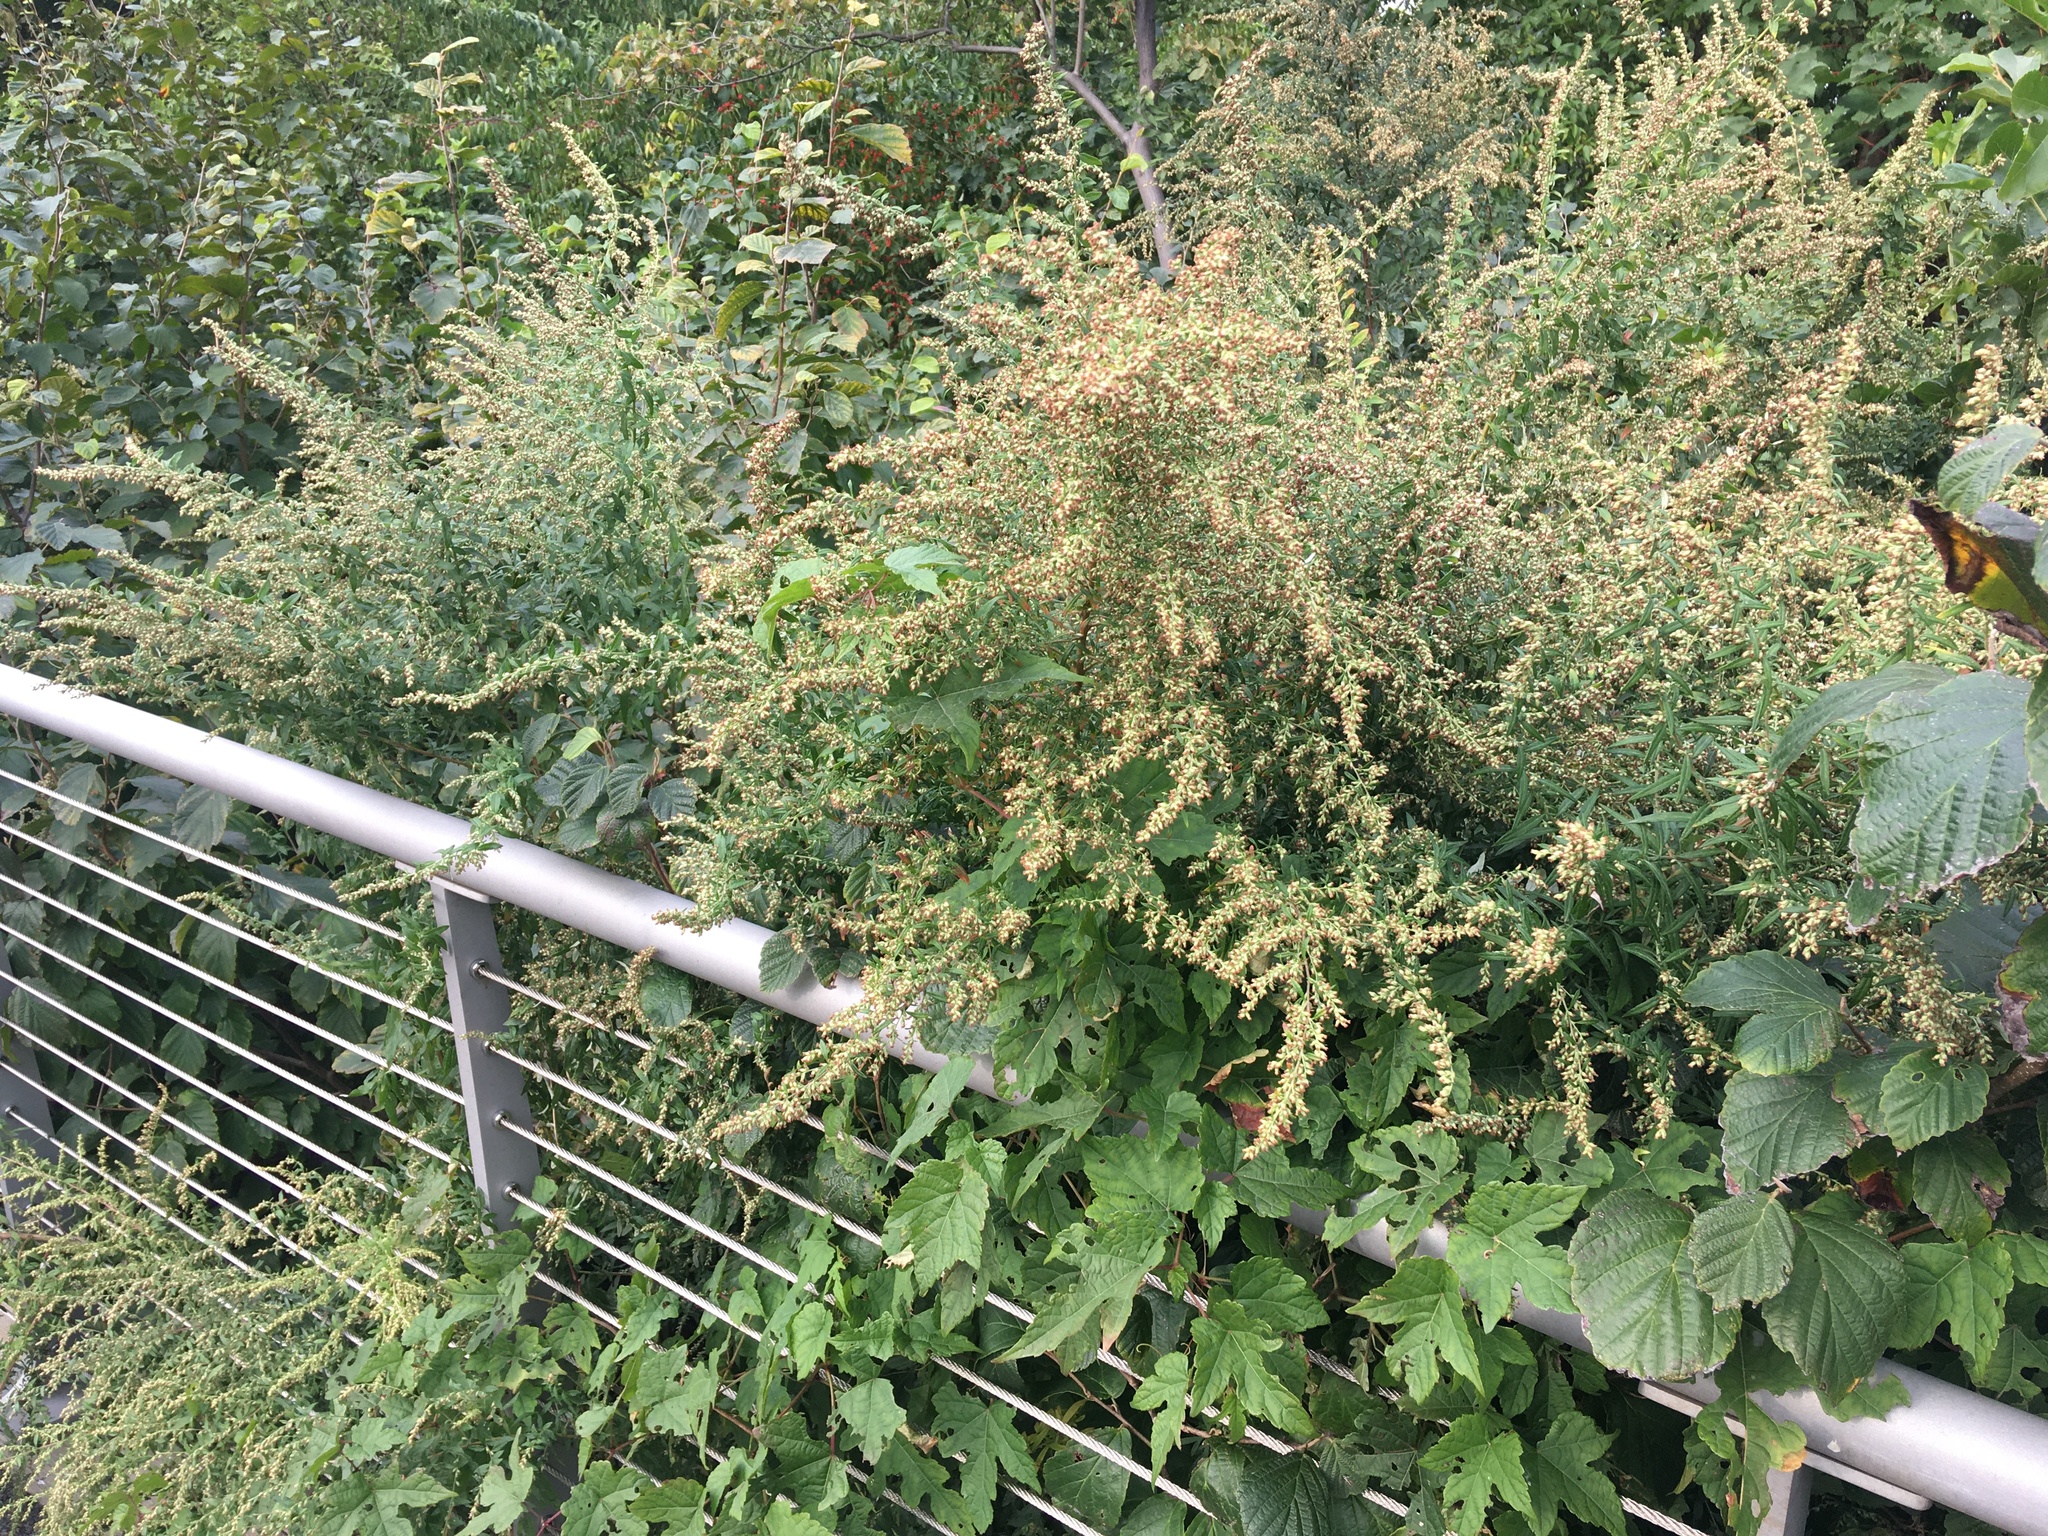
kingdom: Plantae
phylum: Tracheophyta
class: Magnoliopsida
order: Asterales
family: Asteraceae
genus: Artemisia
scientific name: Artemisia vulgaris
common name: Mugwort
